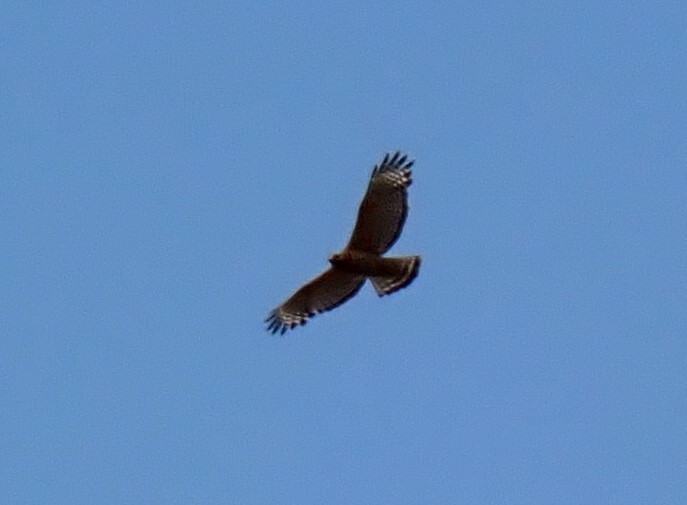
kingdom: Animalia
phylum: Chordata
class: Aves
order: Accipitriformes
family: Accipitridae
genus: Buteo
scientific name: Buteo lineatus
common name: Red-shouldered hawk
